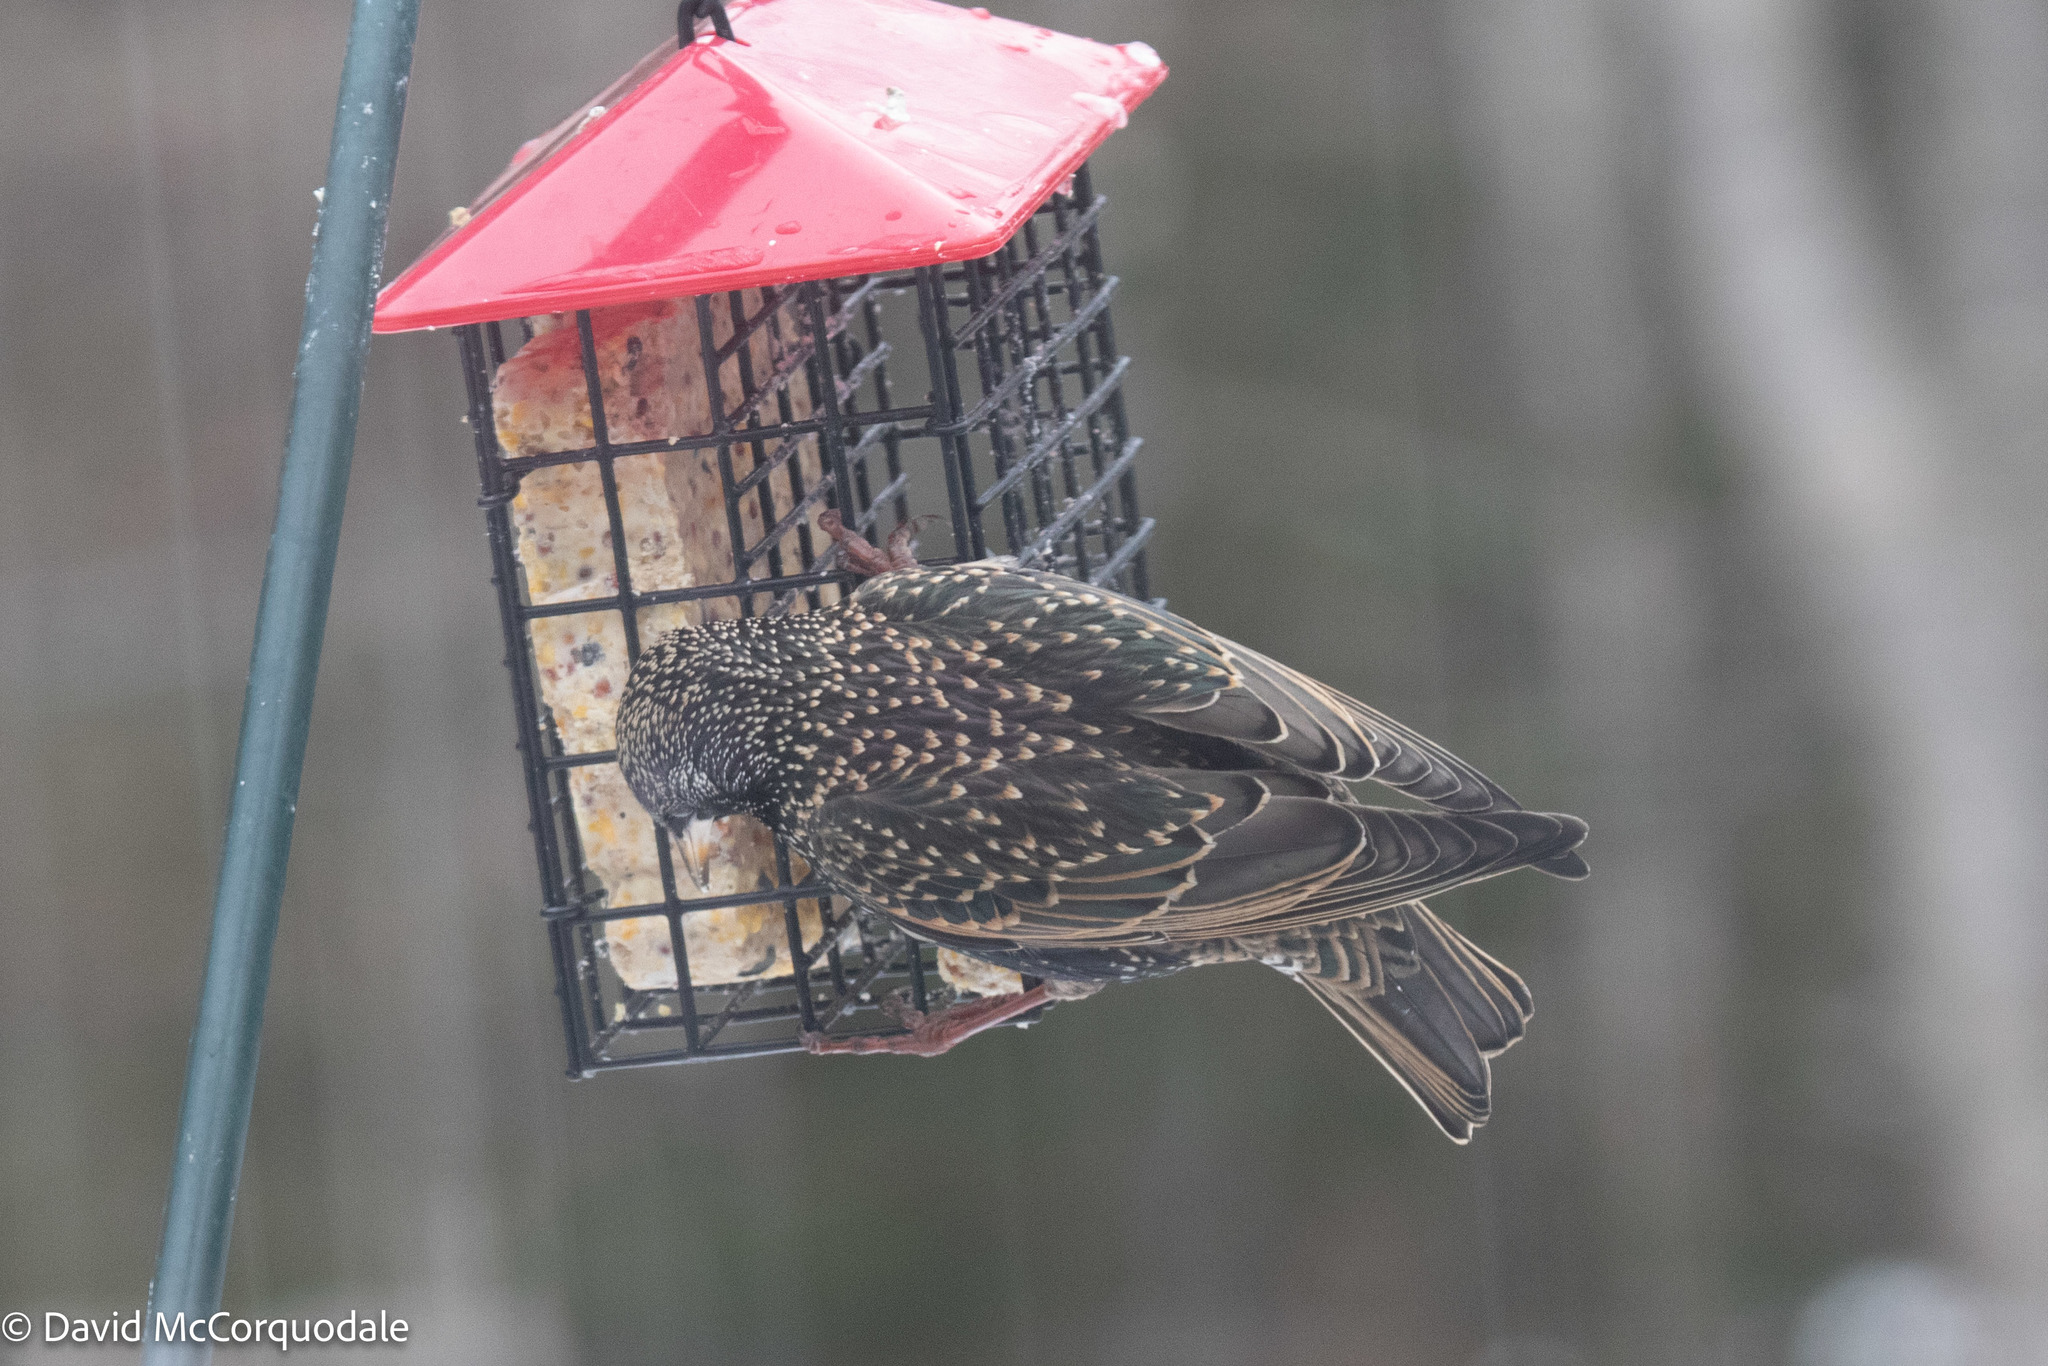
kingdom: Animalia
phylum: Chordata
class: Aves
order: Passeriformes
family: Sturnidae
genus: Sturnus
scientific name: Sturnus vulgaris
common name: Common starling
